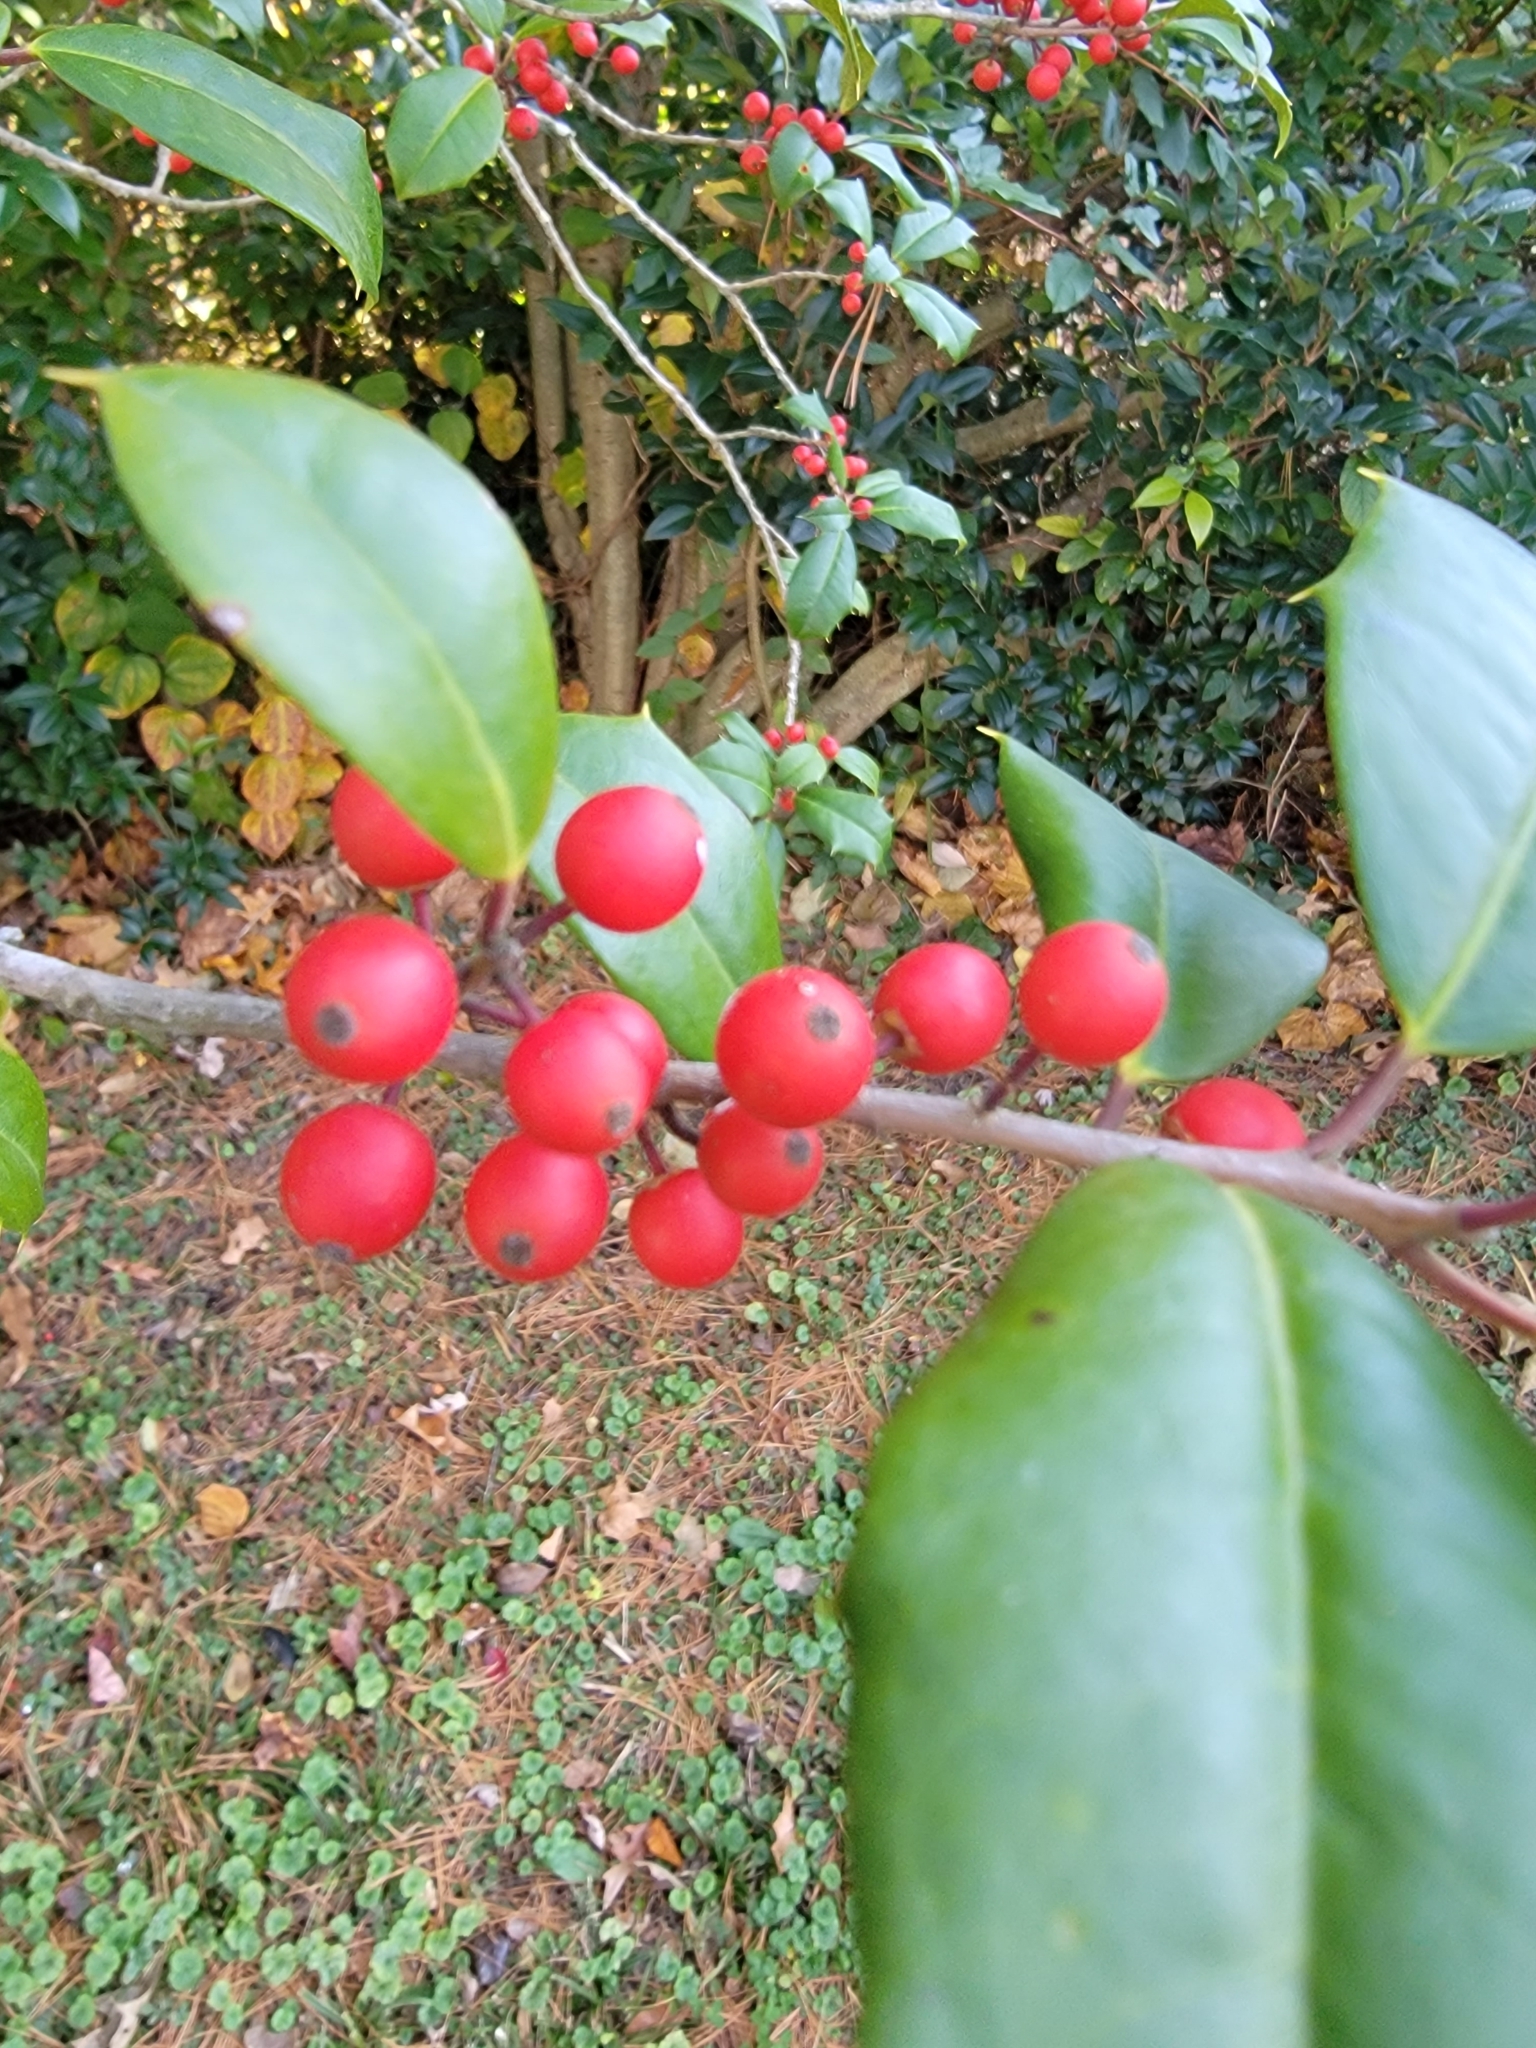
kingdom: Plantae
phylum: Tracheophyta
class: Magnoliopsida
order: Aquifoliales
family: Aquifoliaceae
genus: Ilex
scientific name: Ilex opaca
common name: American holly
